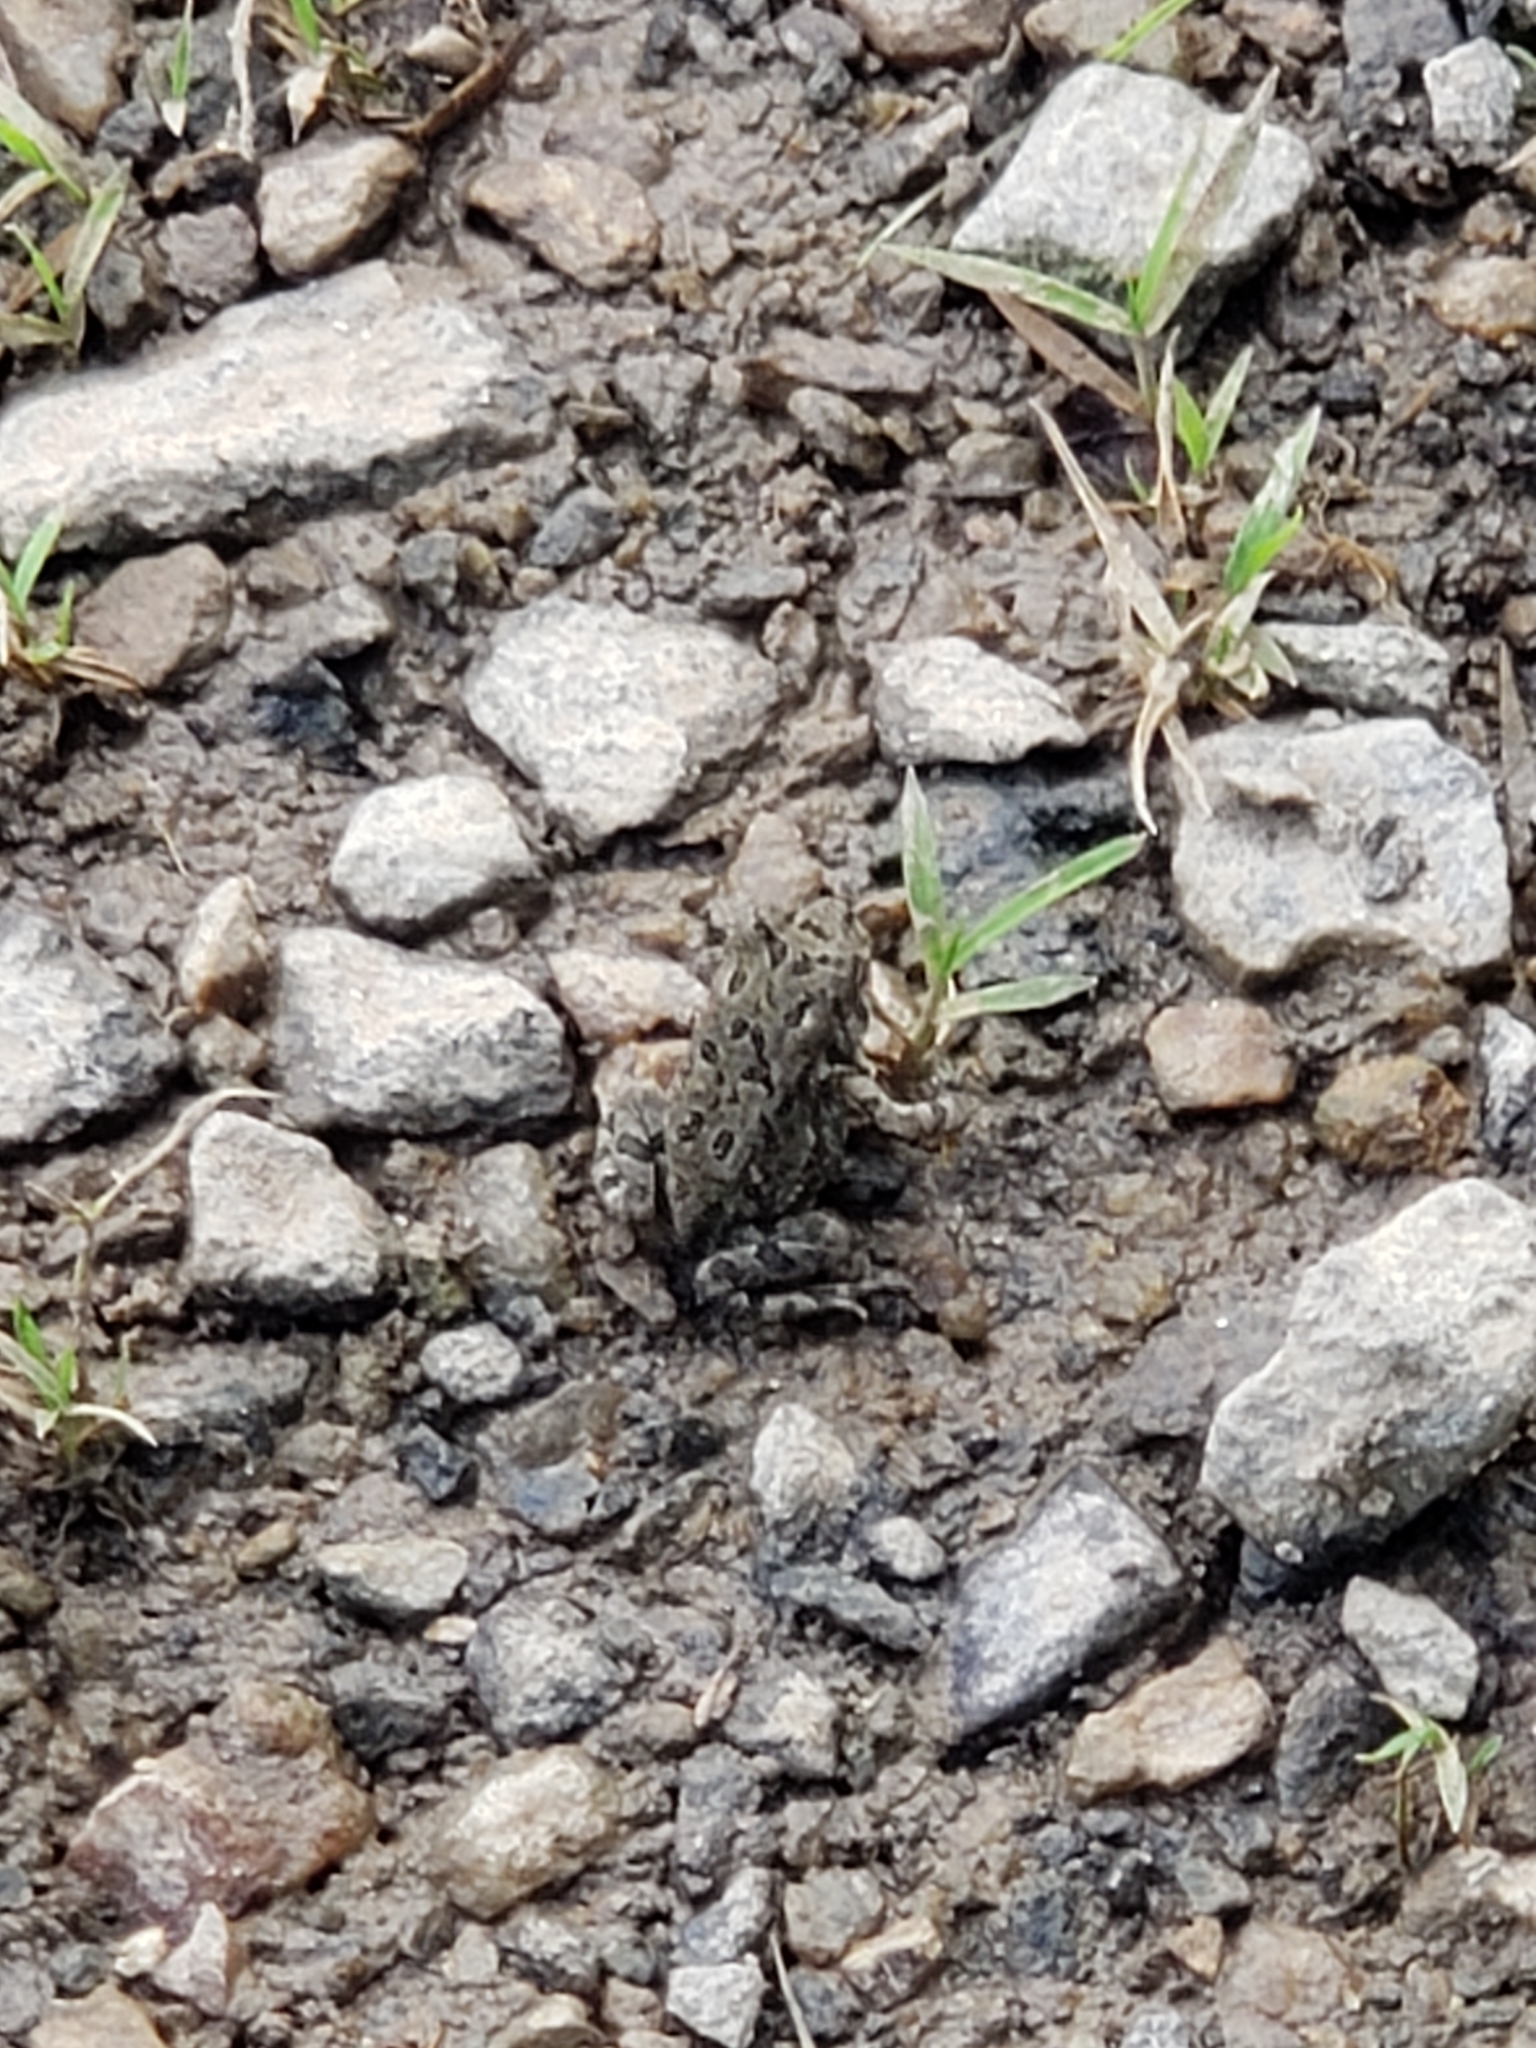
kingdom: Animalia
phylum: Chordata
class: Amphibia
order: Anura
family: Bufonidae
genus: Anaxyrus
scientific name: Anaxyrus fowleri
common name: Fowler's toad
